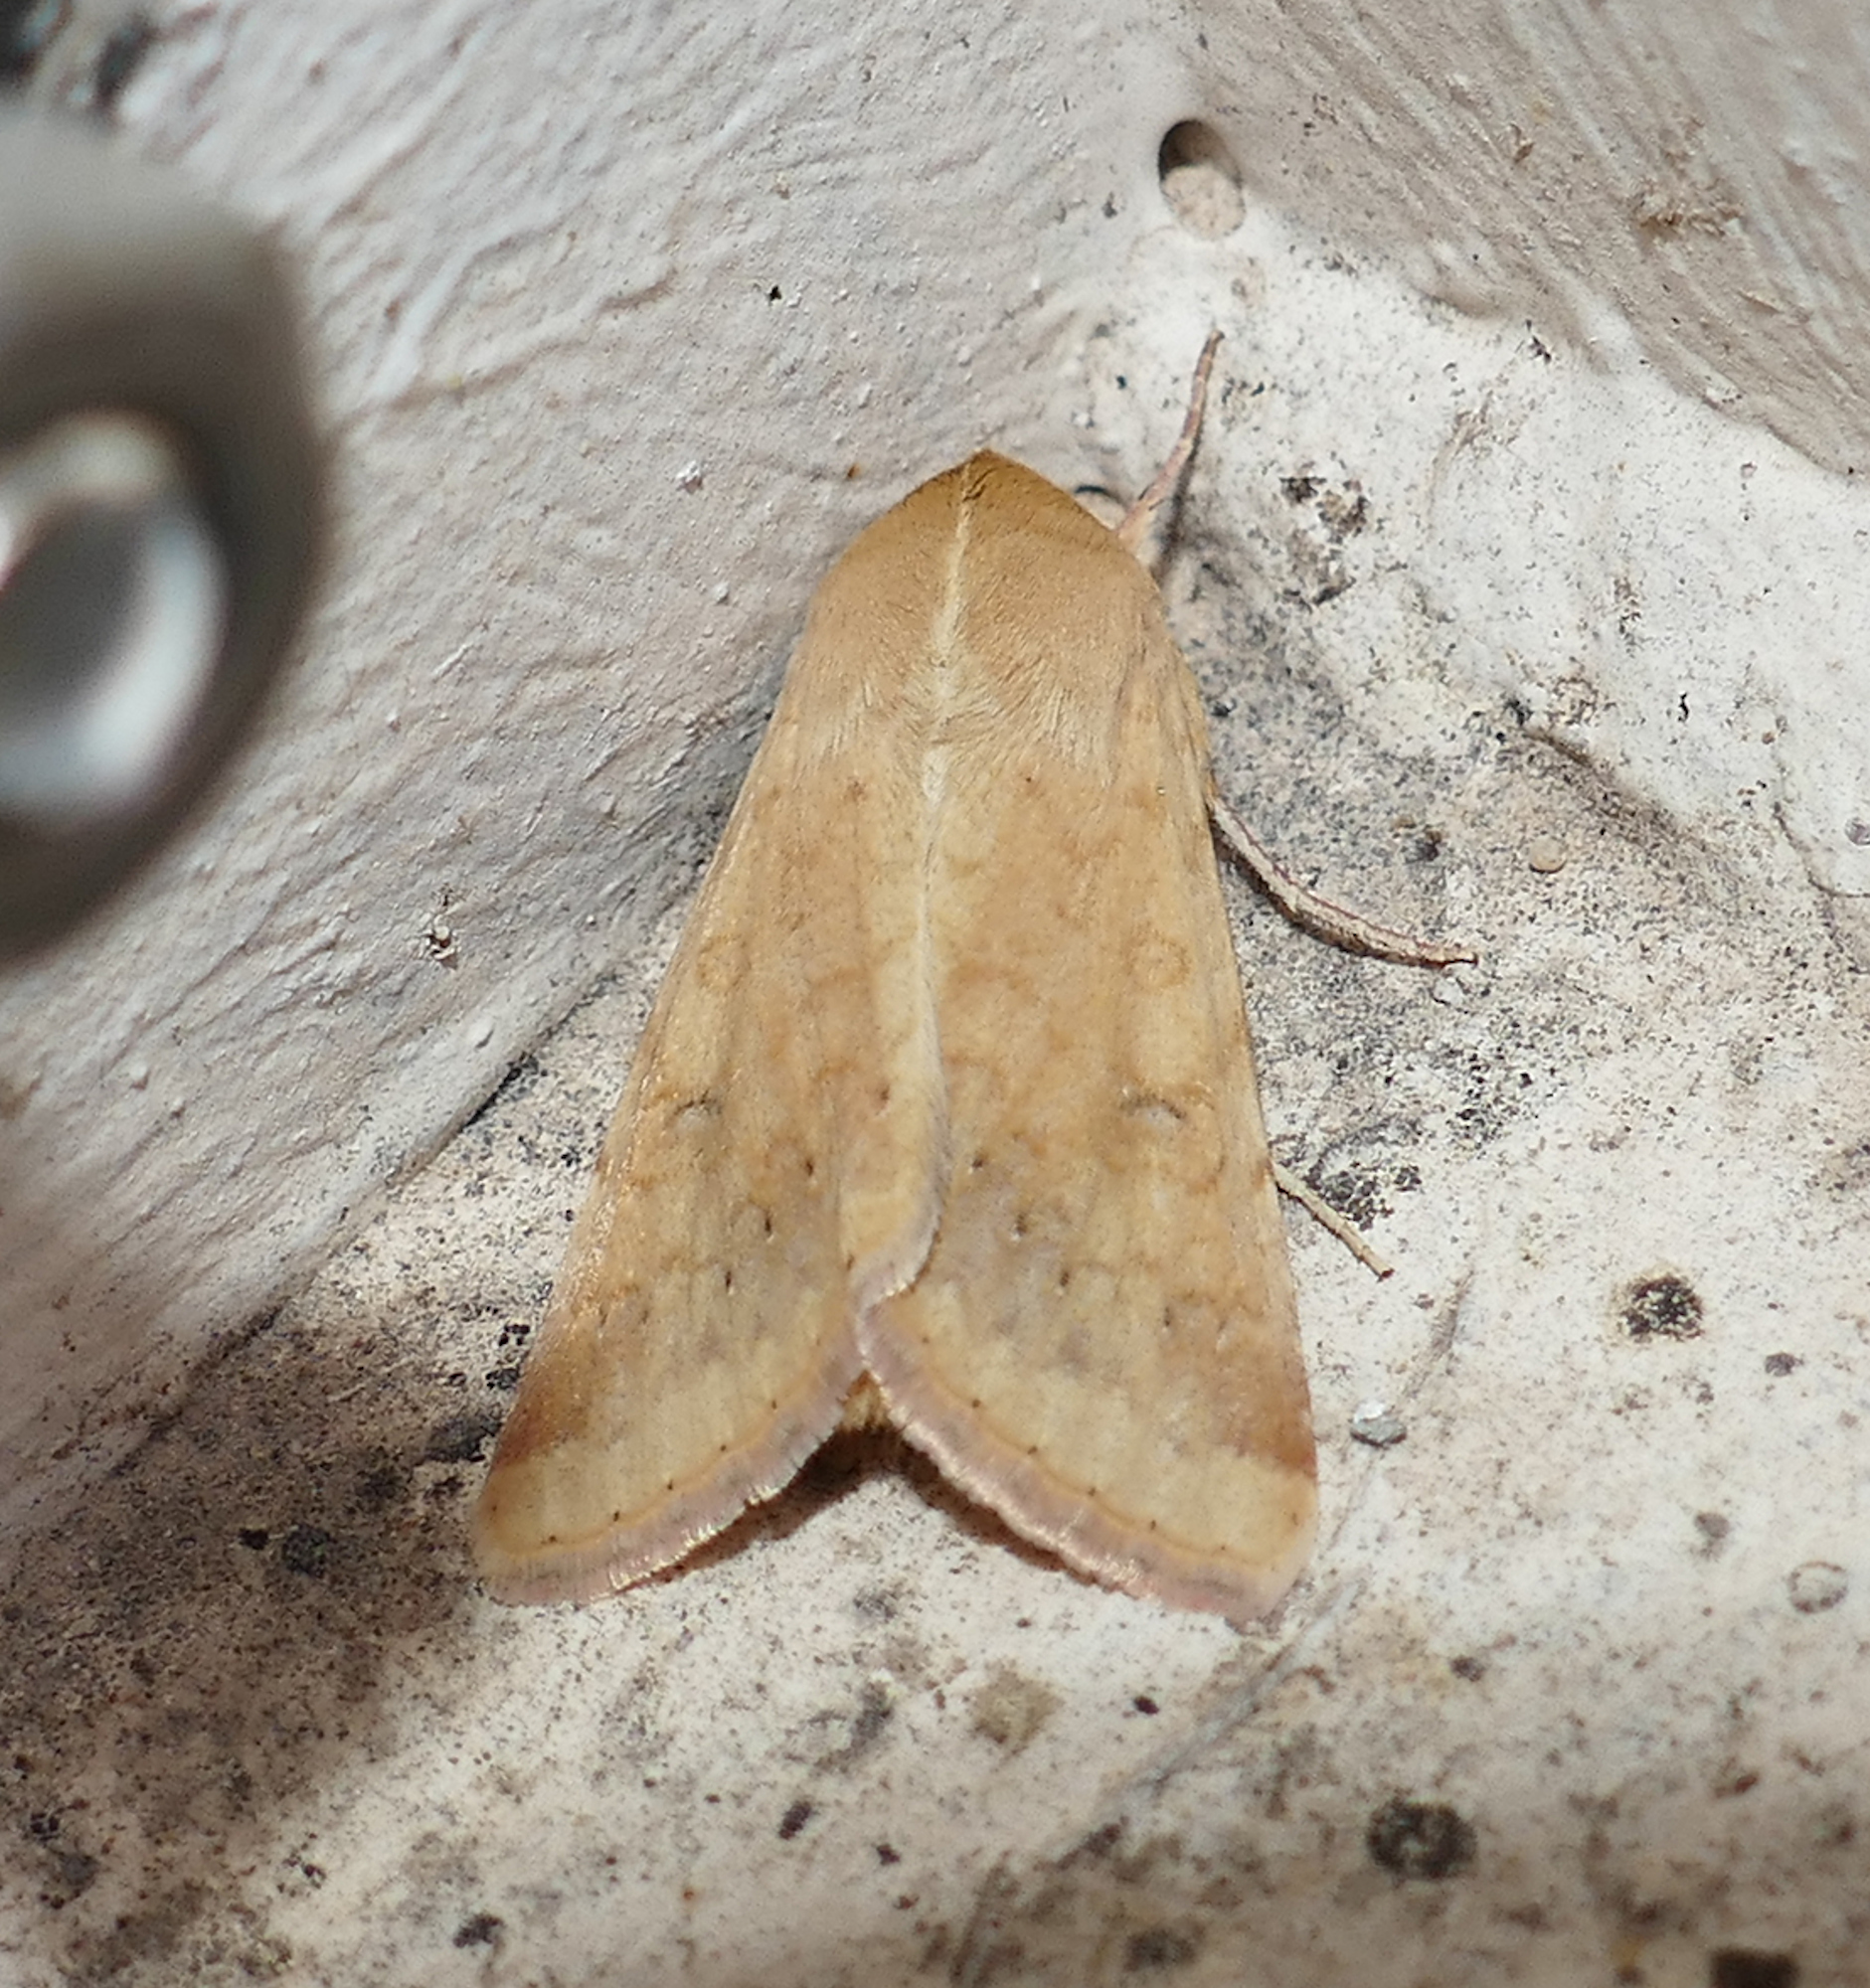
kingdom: Animalia
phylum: Arthropoda
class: Insecta
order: Lepidoptera
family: Noctuidae
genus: Helicoverpa
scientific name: Helicoverpa zea
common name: Bollworm
